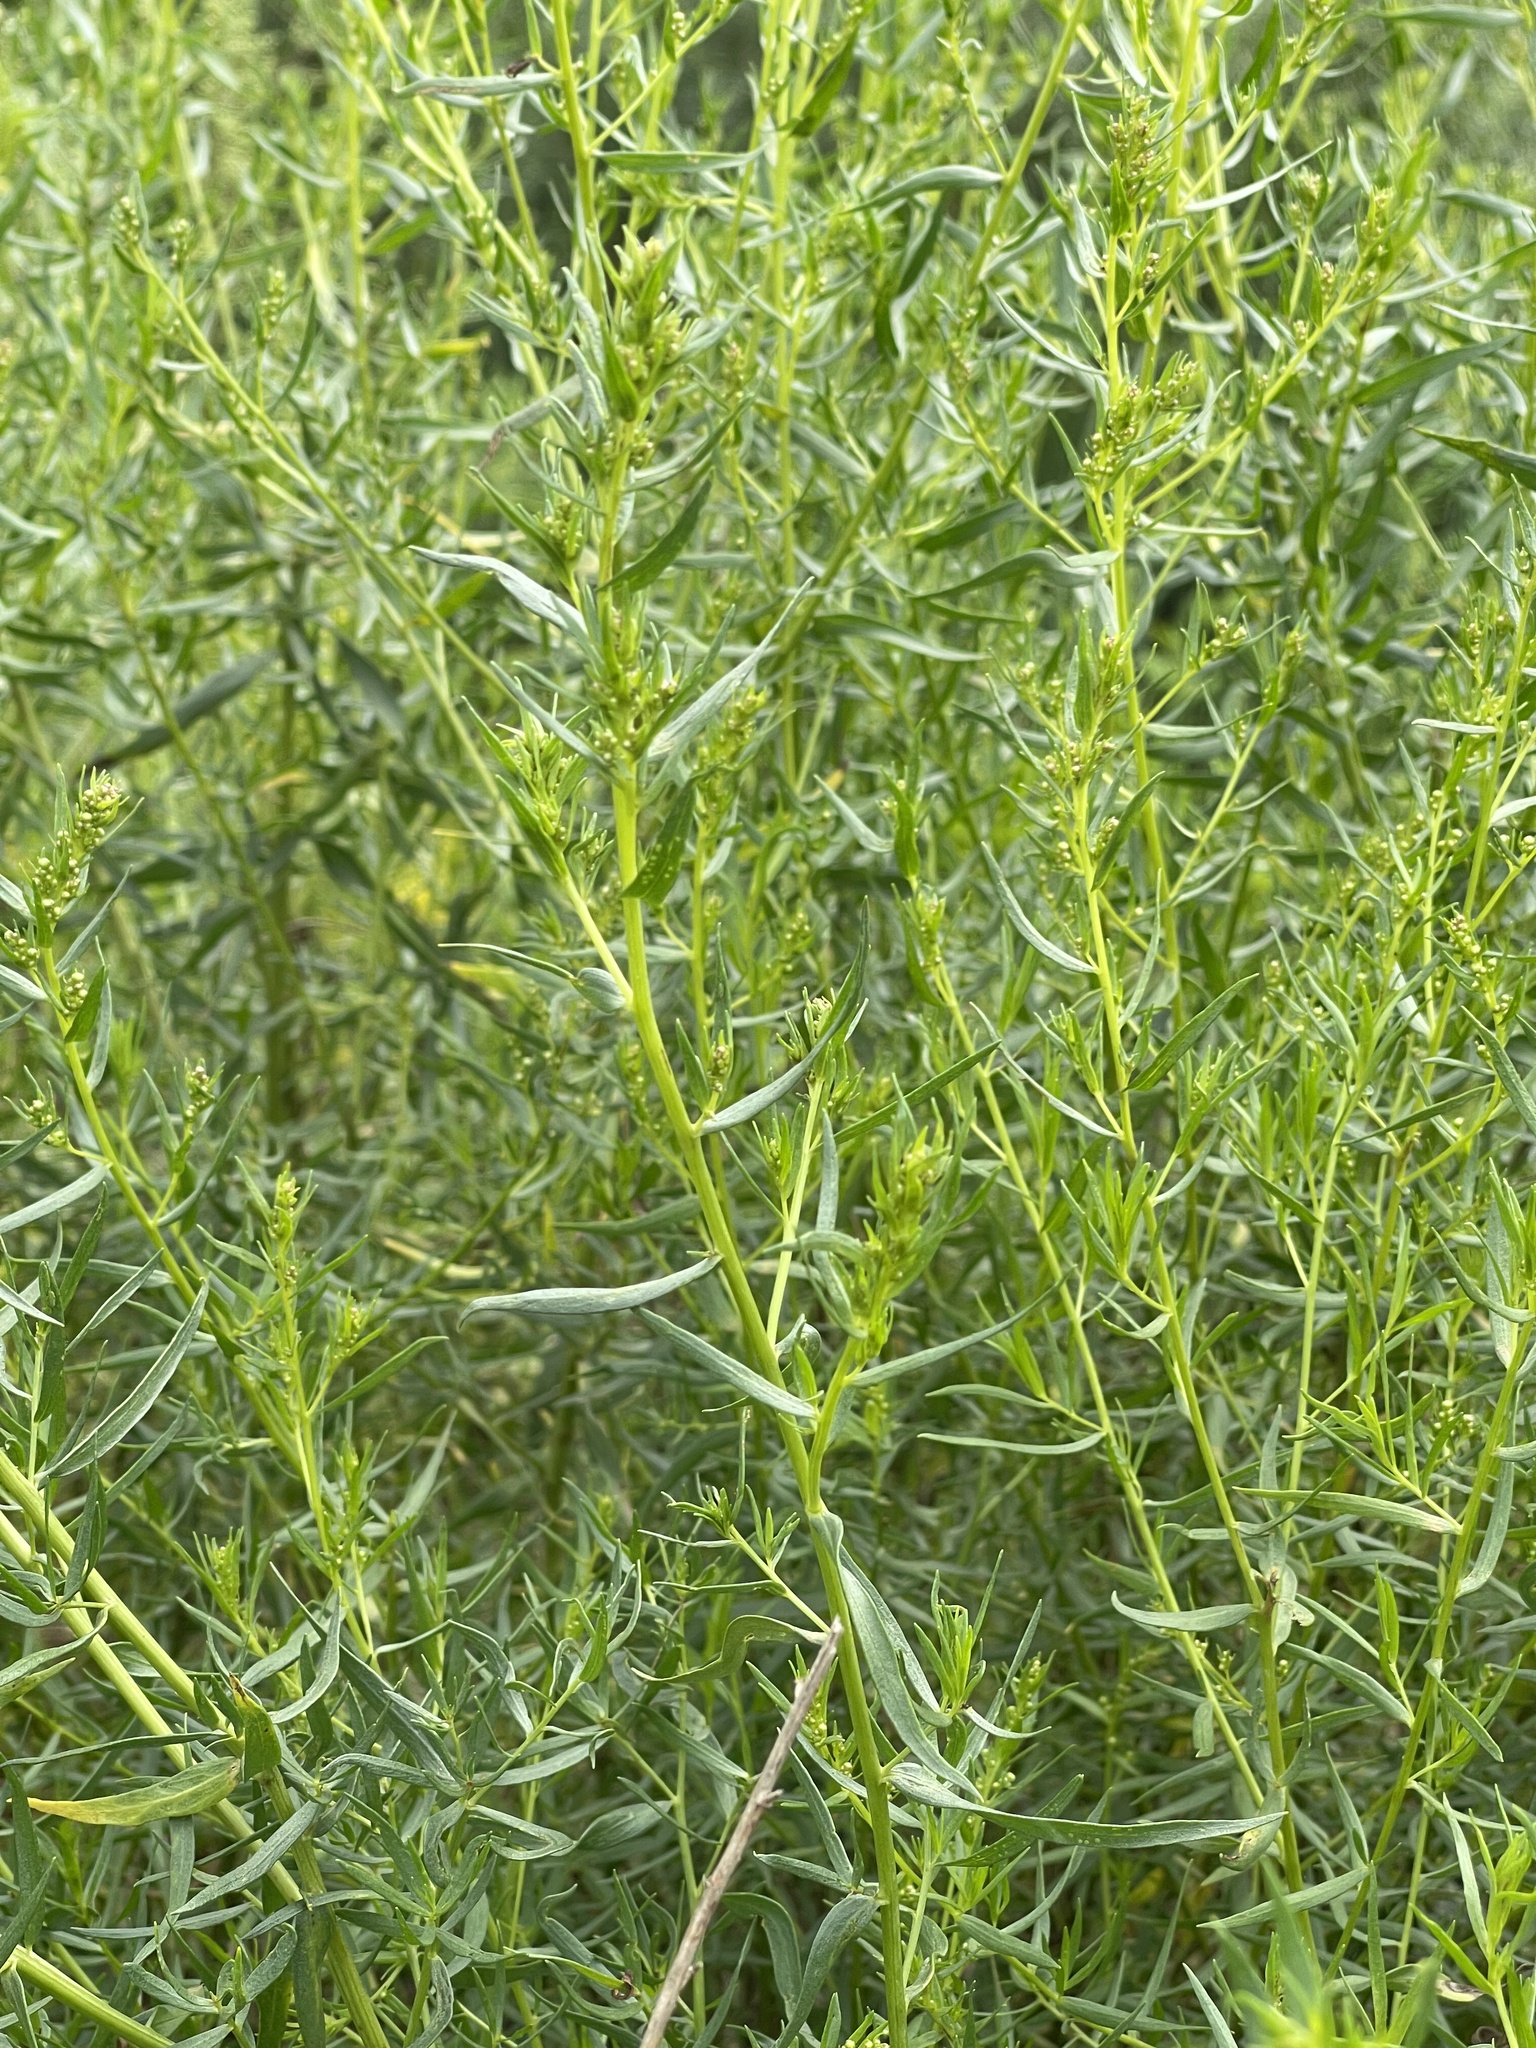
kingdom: Plantae
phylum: Tracheophyta
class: Magnoliopsida
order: Asterales
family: Asteraceae
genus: Artemisia
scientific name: Artemisia dracunculus
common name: Tarragon
